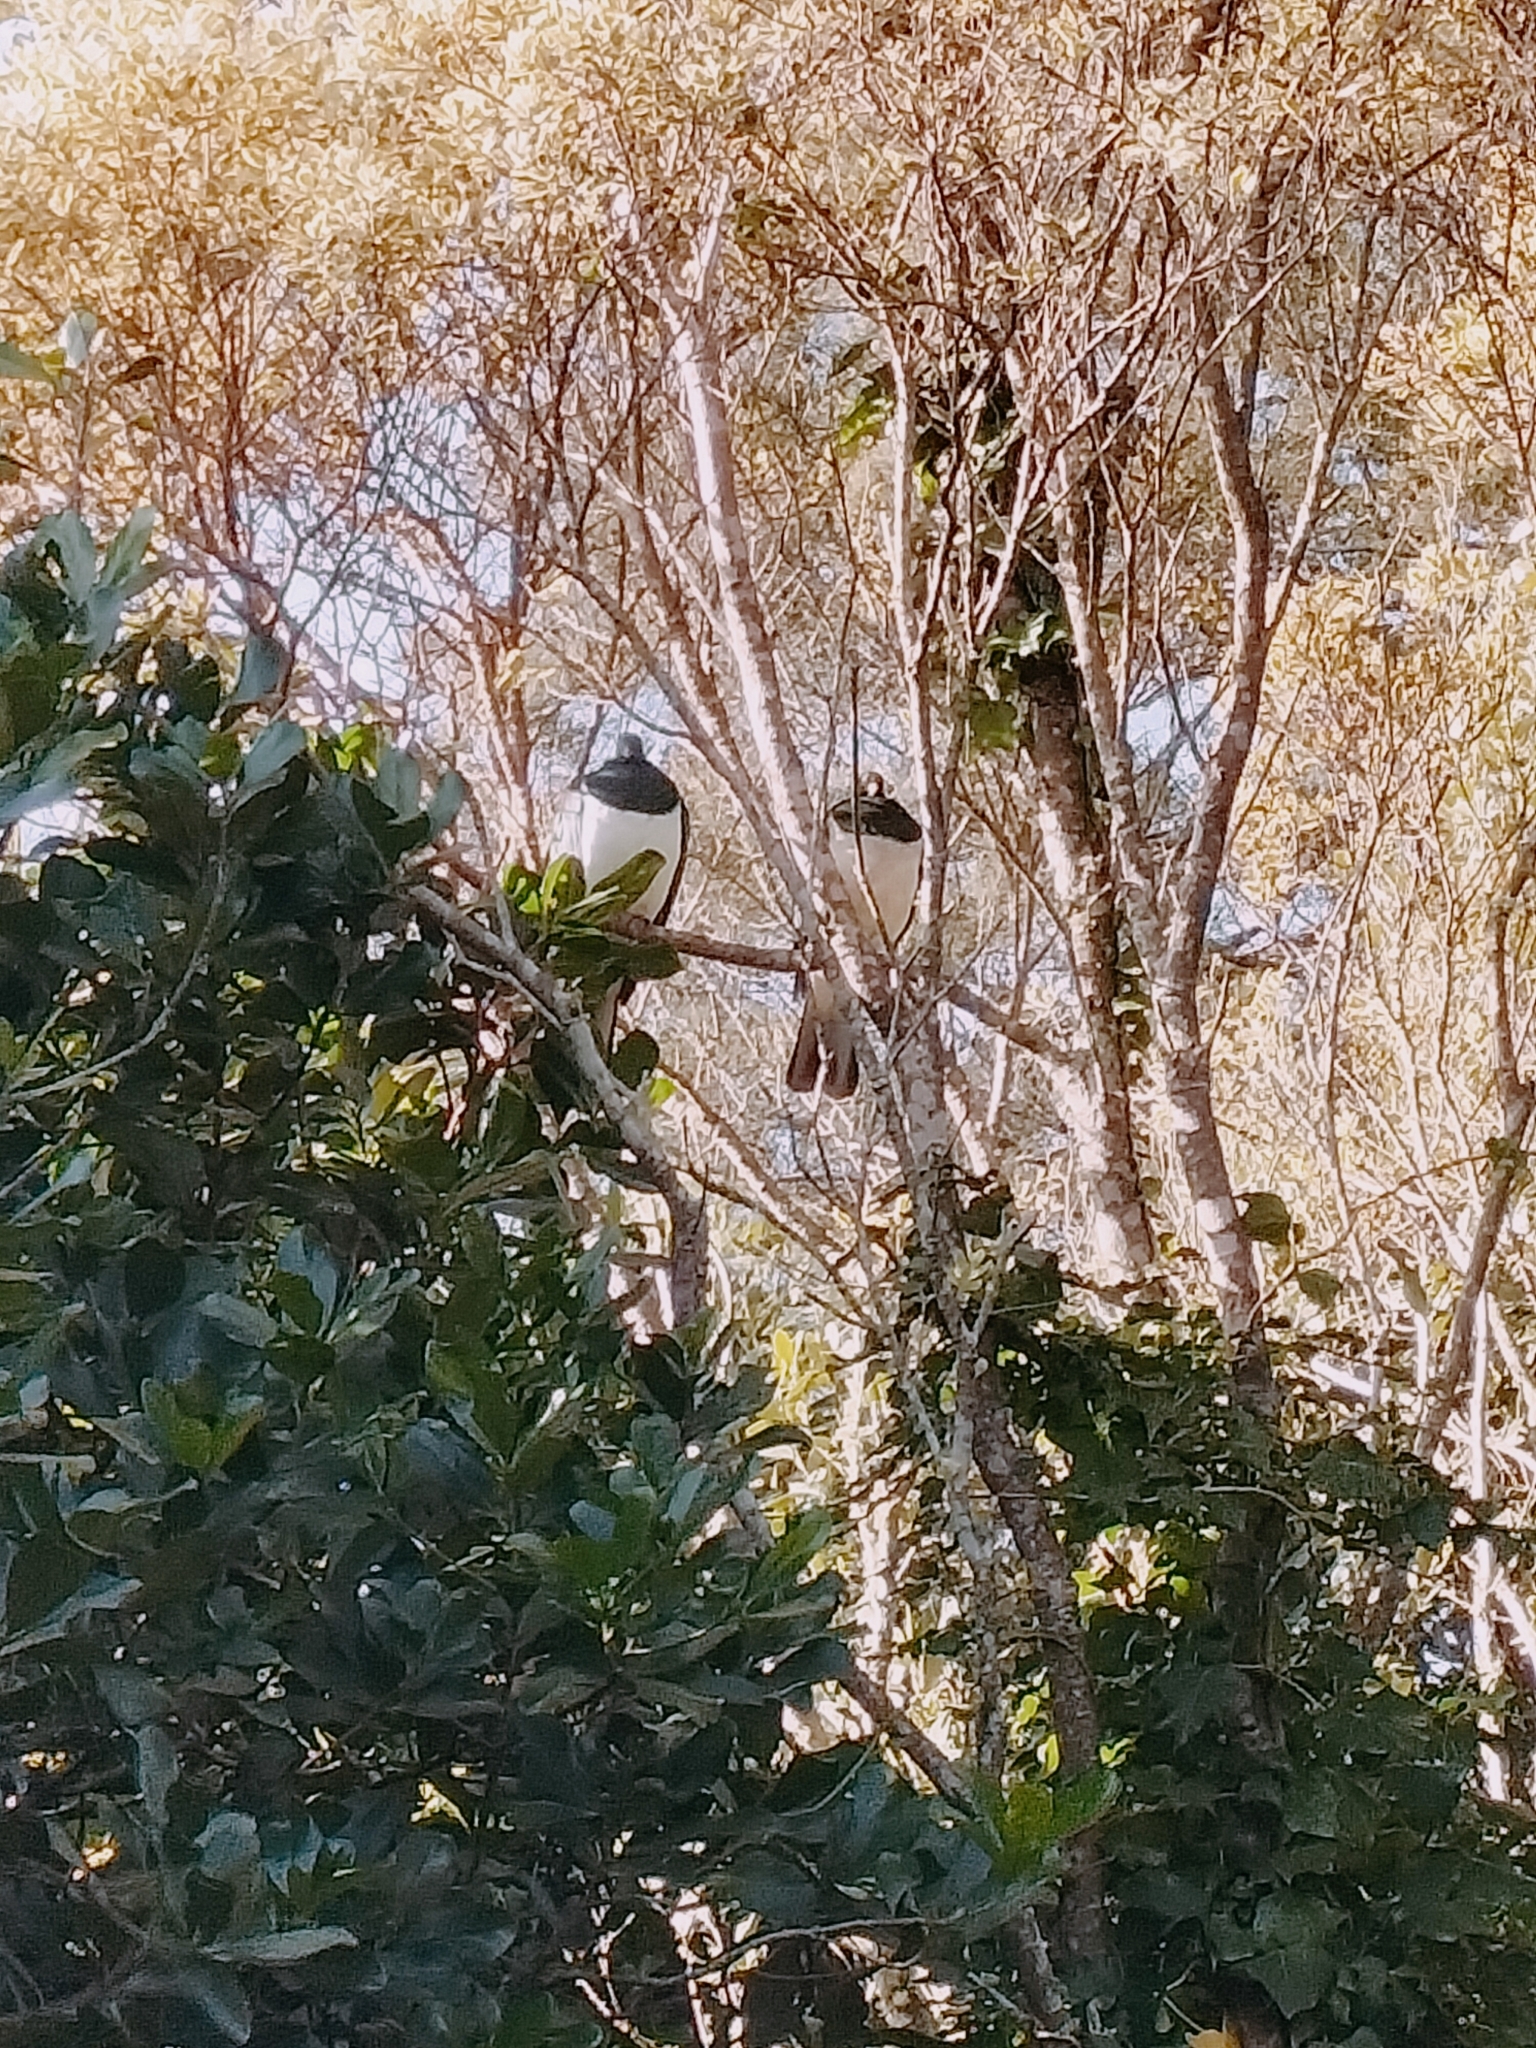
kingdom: Animalia
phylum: Chordata
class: Aves
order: Columbiformes
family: Columbidae
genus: Hemiphaga
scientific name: Hemiphaga novaeseelandiae
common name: New zealand pigeon
